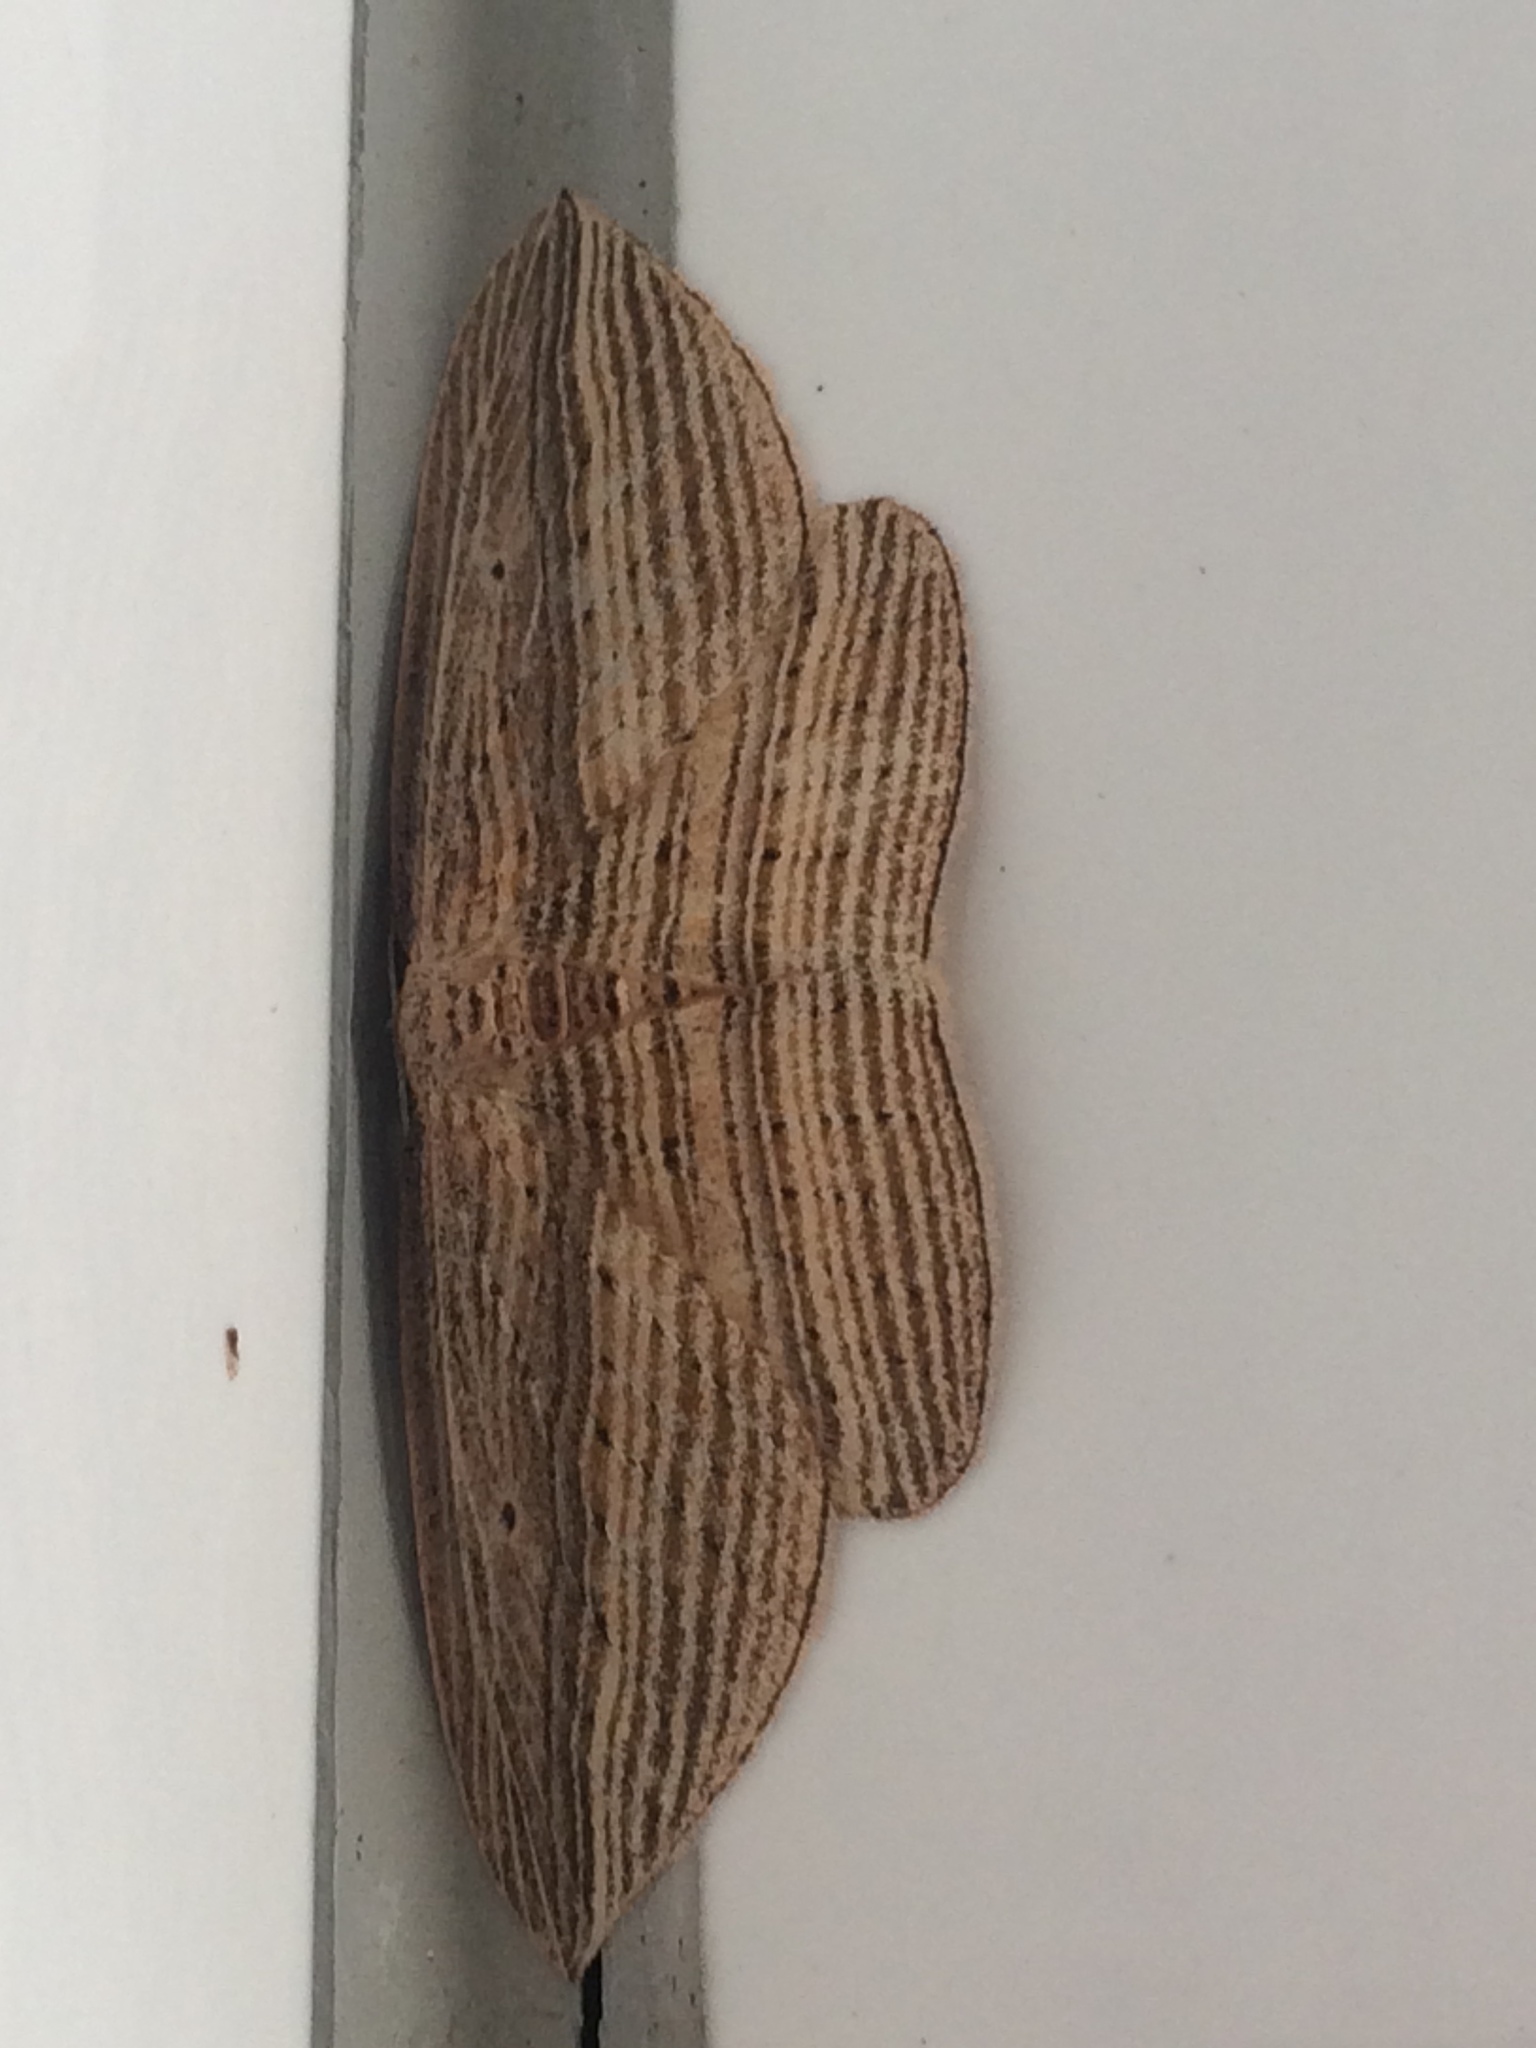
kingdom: Animalia
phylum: Arthropoda
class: Insecta
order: Lepidoptera
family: Geometridae
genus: Epiphryne
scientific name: Epiphryne verriculata
